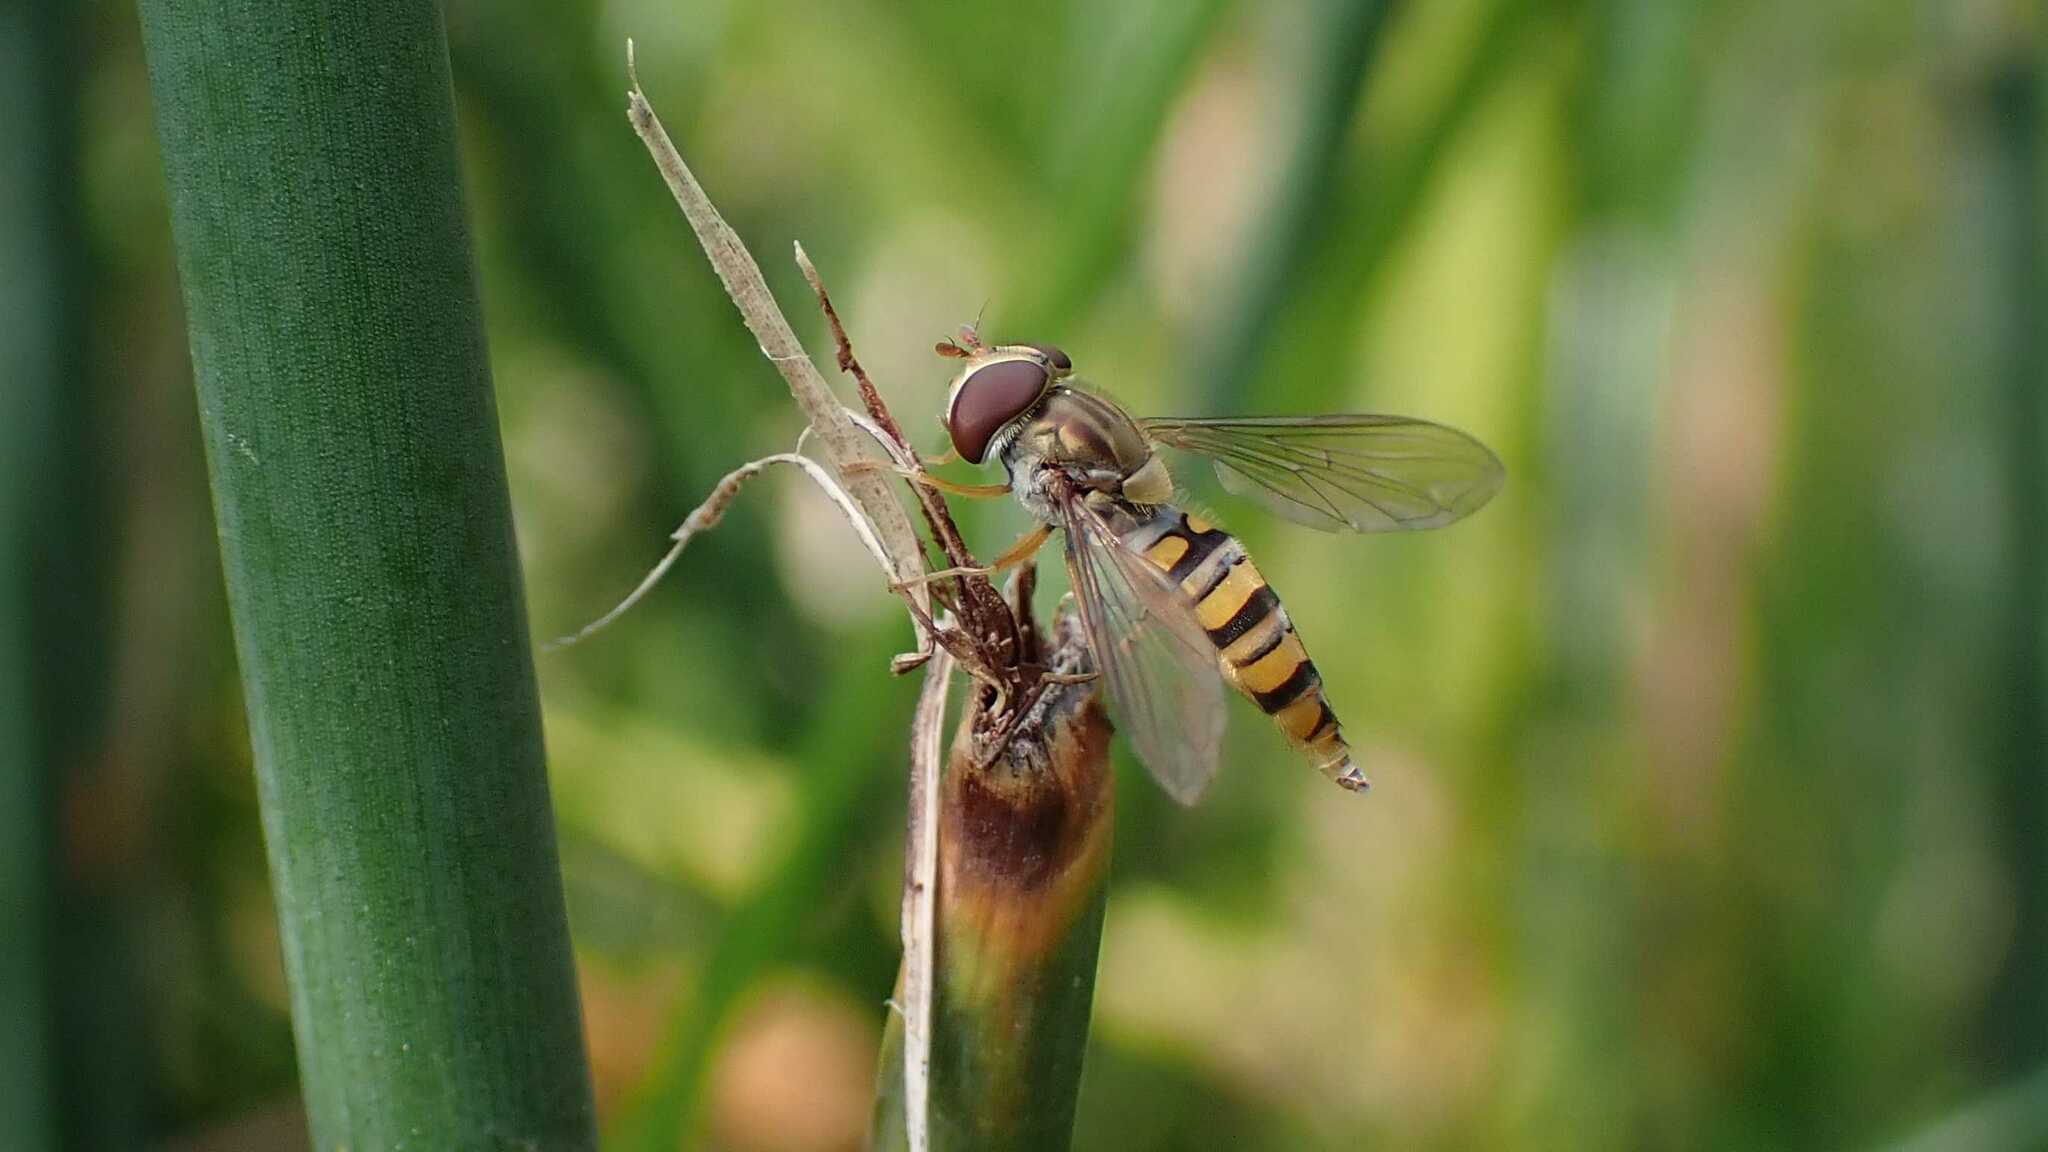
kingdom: Animalia
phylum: Arthropoda
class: Insecta
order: Diptera
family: Syrphidae
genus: Episyrphus
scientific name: Episyrphus balteatus
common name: Marmalade hoverfly
